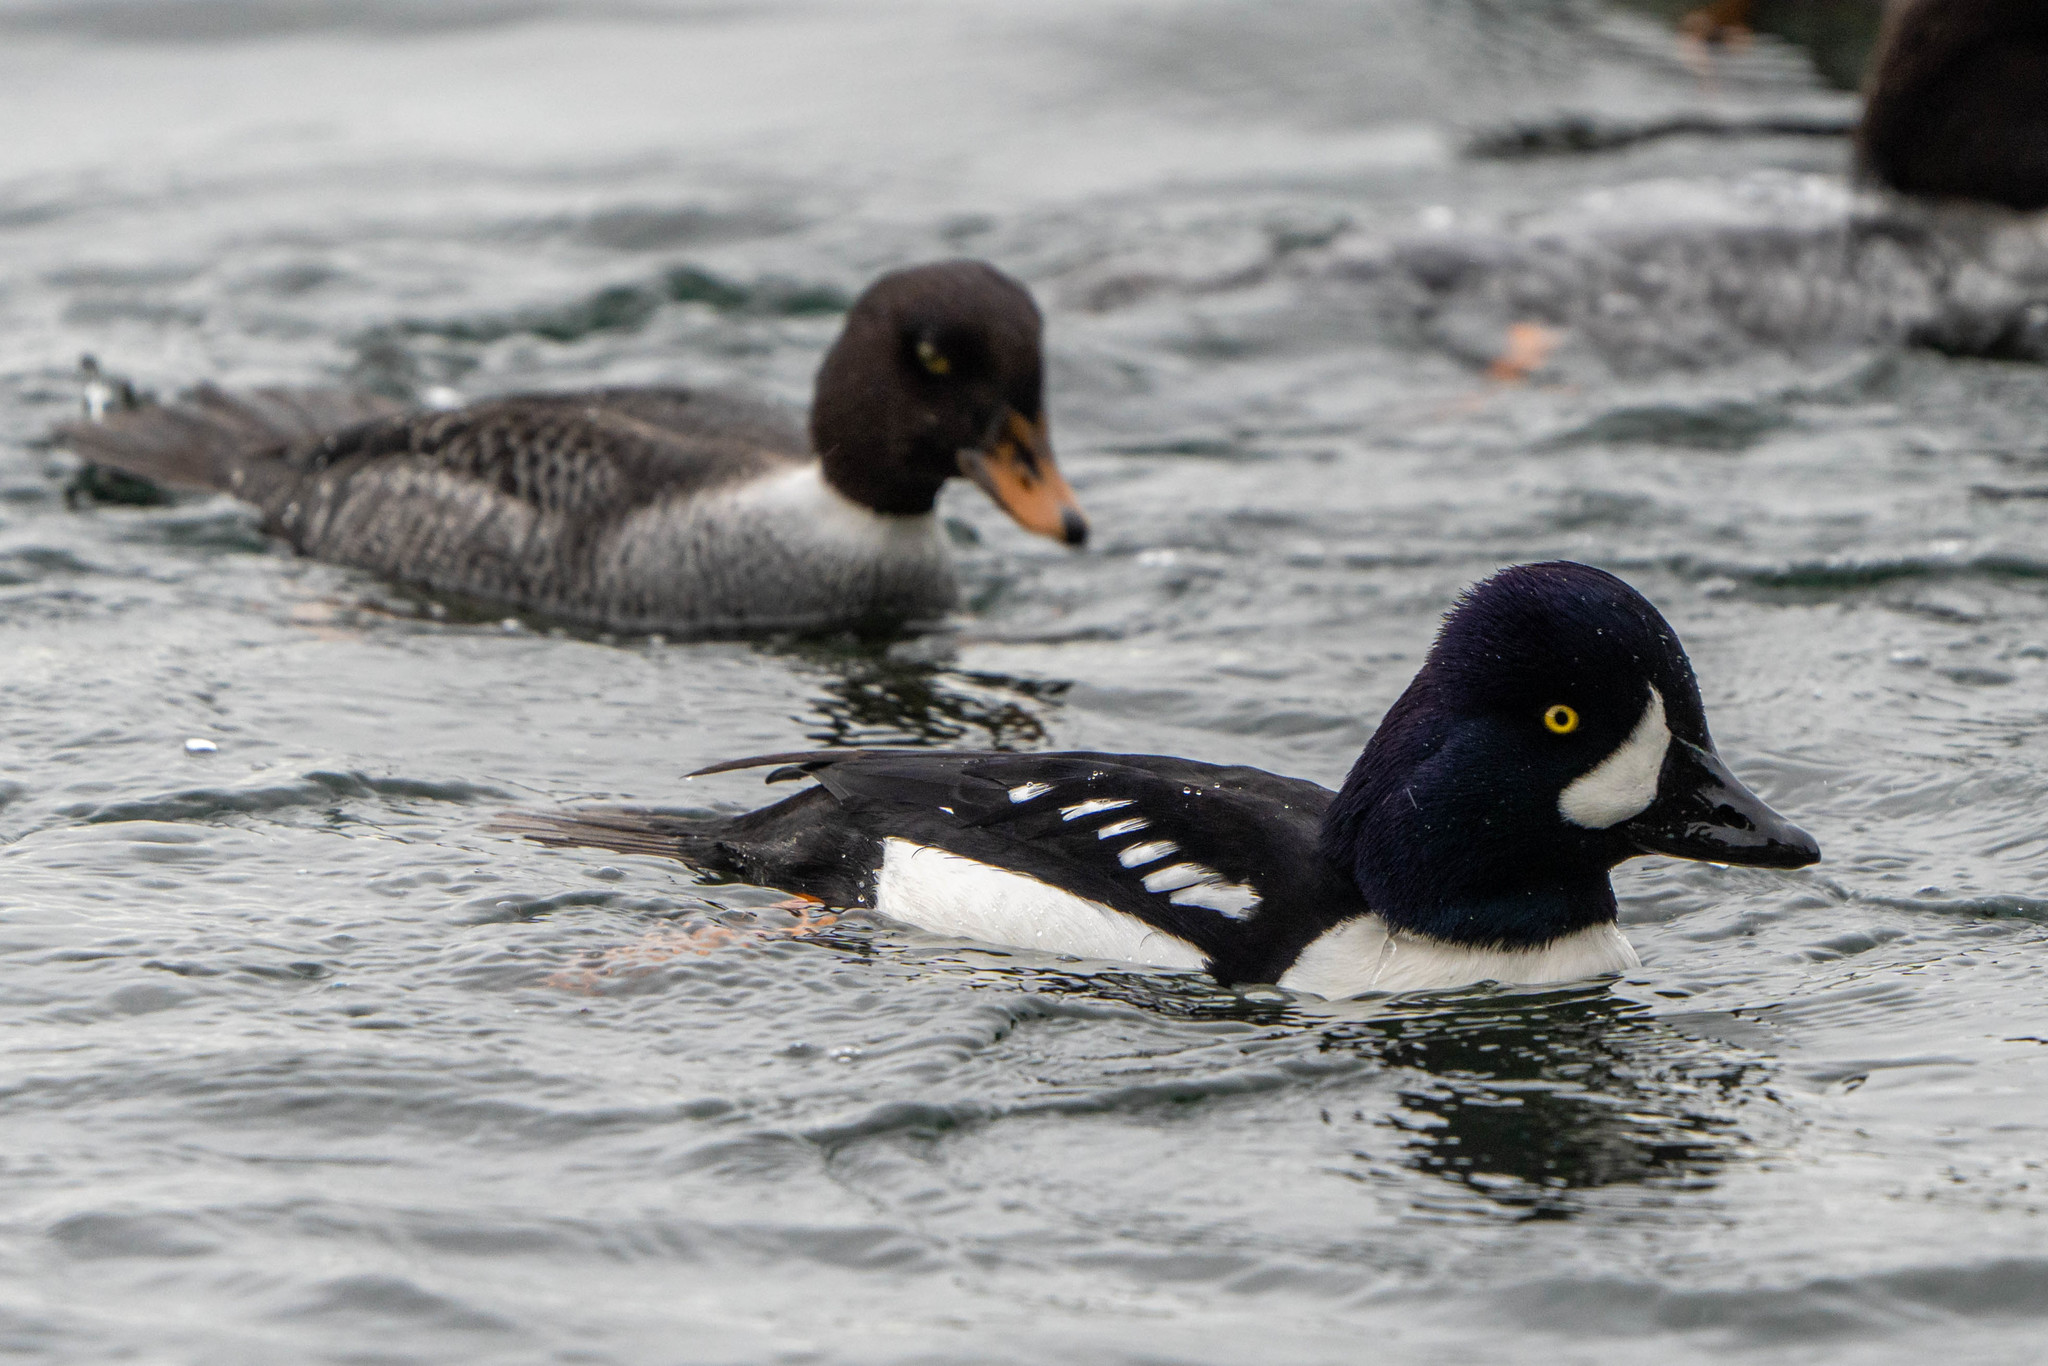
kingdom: Animalia
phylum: Chordata
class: Aves
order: Anseriformes
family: Anatidae
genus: Bucephala
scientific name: Bucephala islandica
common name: Barrow's goldeneye
